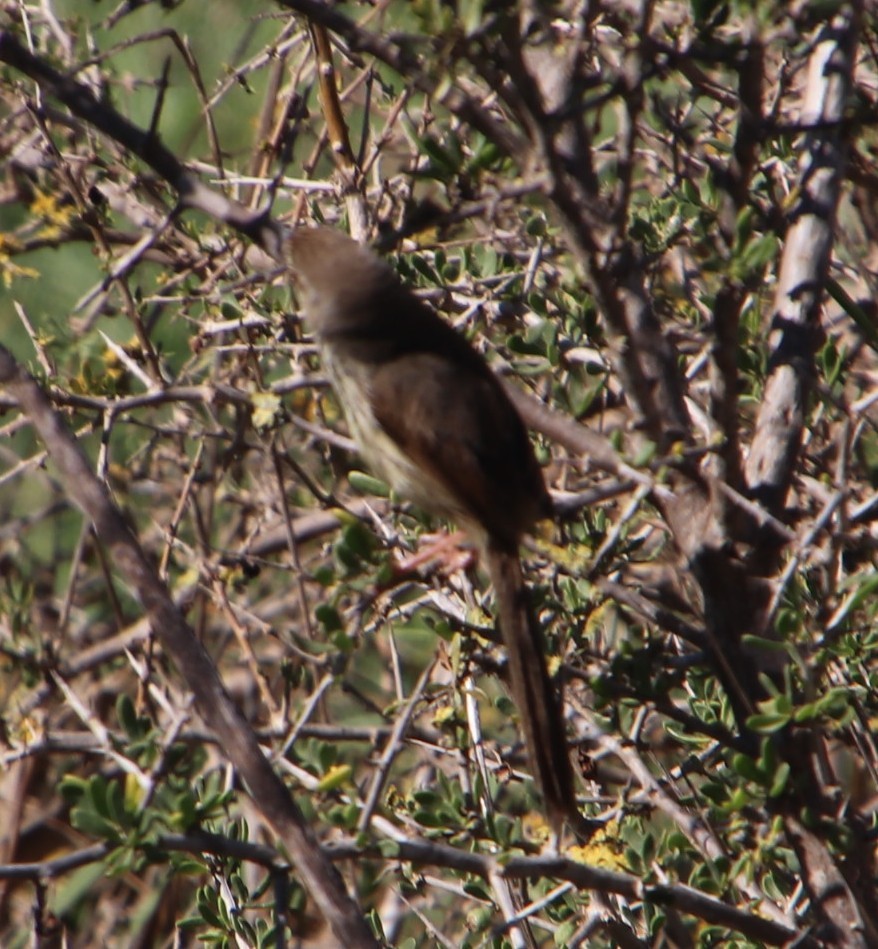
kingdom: Animalia
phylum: Chordata
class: Aves
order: Passeriformes
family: Cisticolidae
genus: Prinia
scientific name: Prinia maculosa
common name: Karoo prinia
